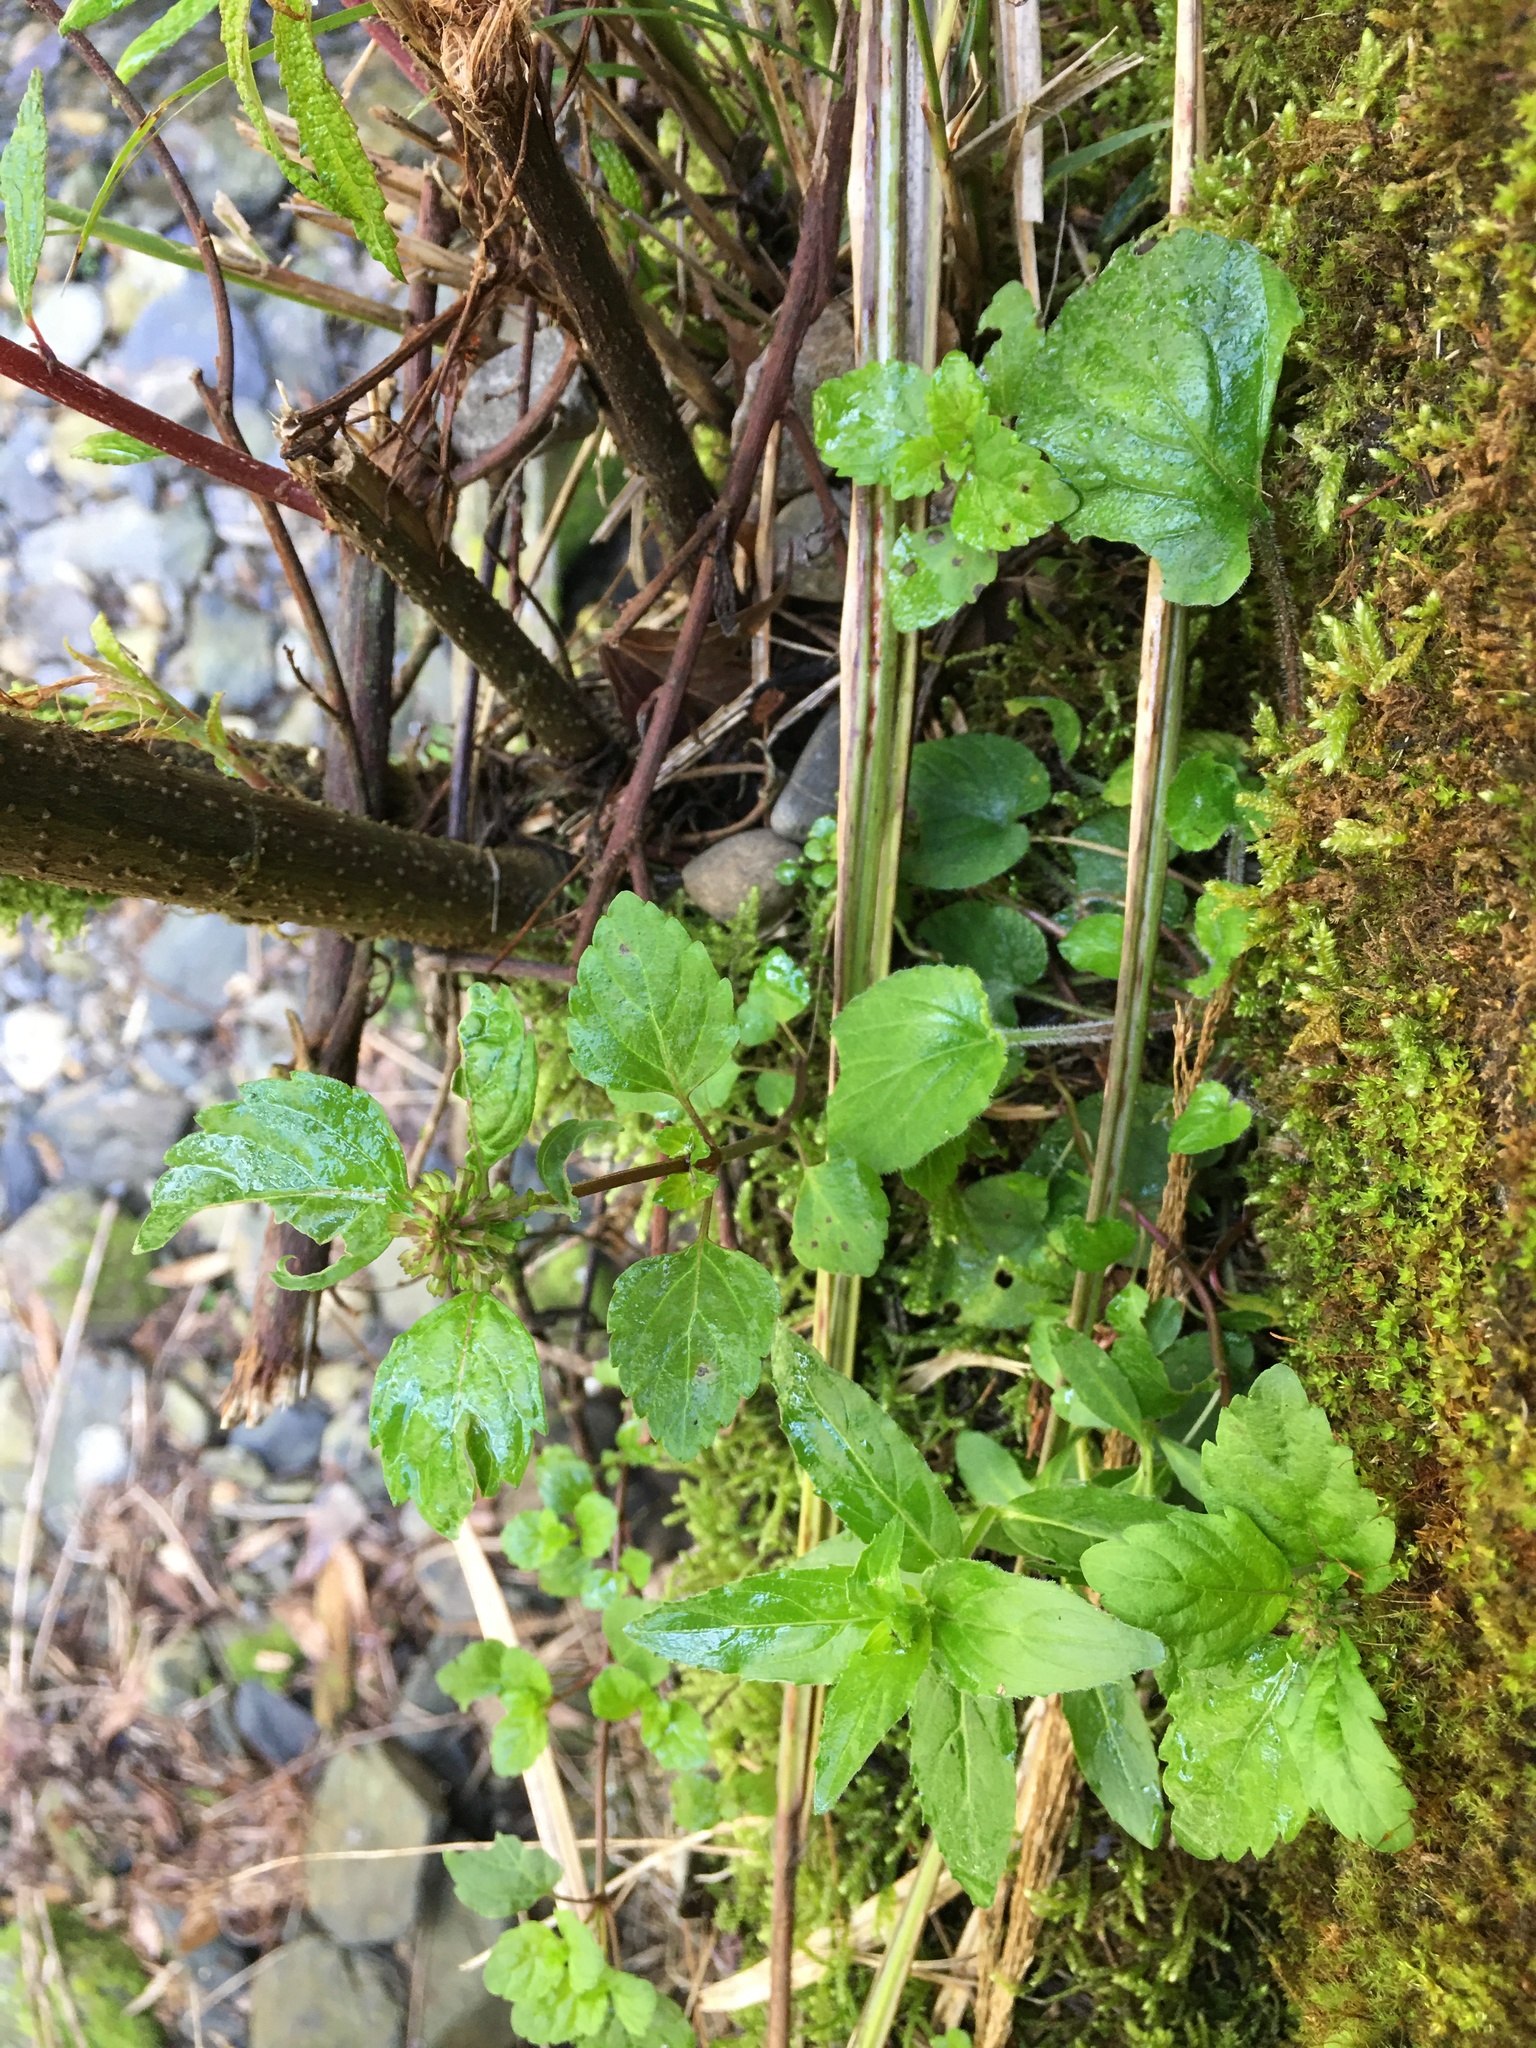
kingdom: Plantae
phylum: Tracheophyta
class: Magnoliopsida
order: Lamiales
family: Lamiaceae
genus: Clinopodium
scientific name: Clinopodium gracile
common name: Slender wild basil
